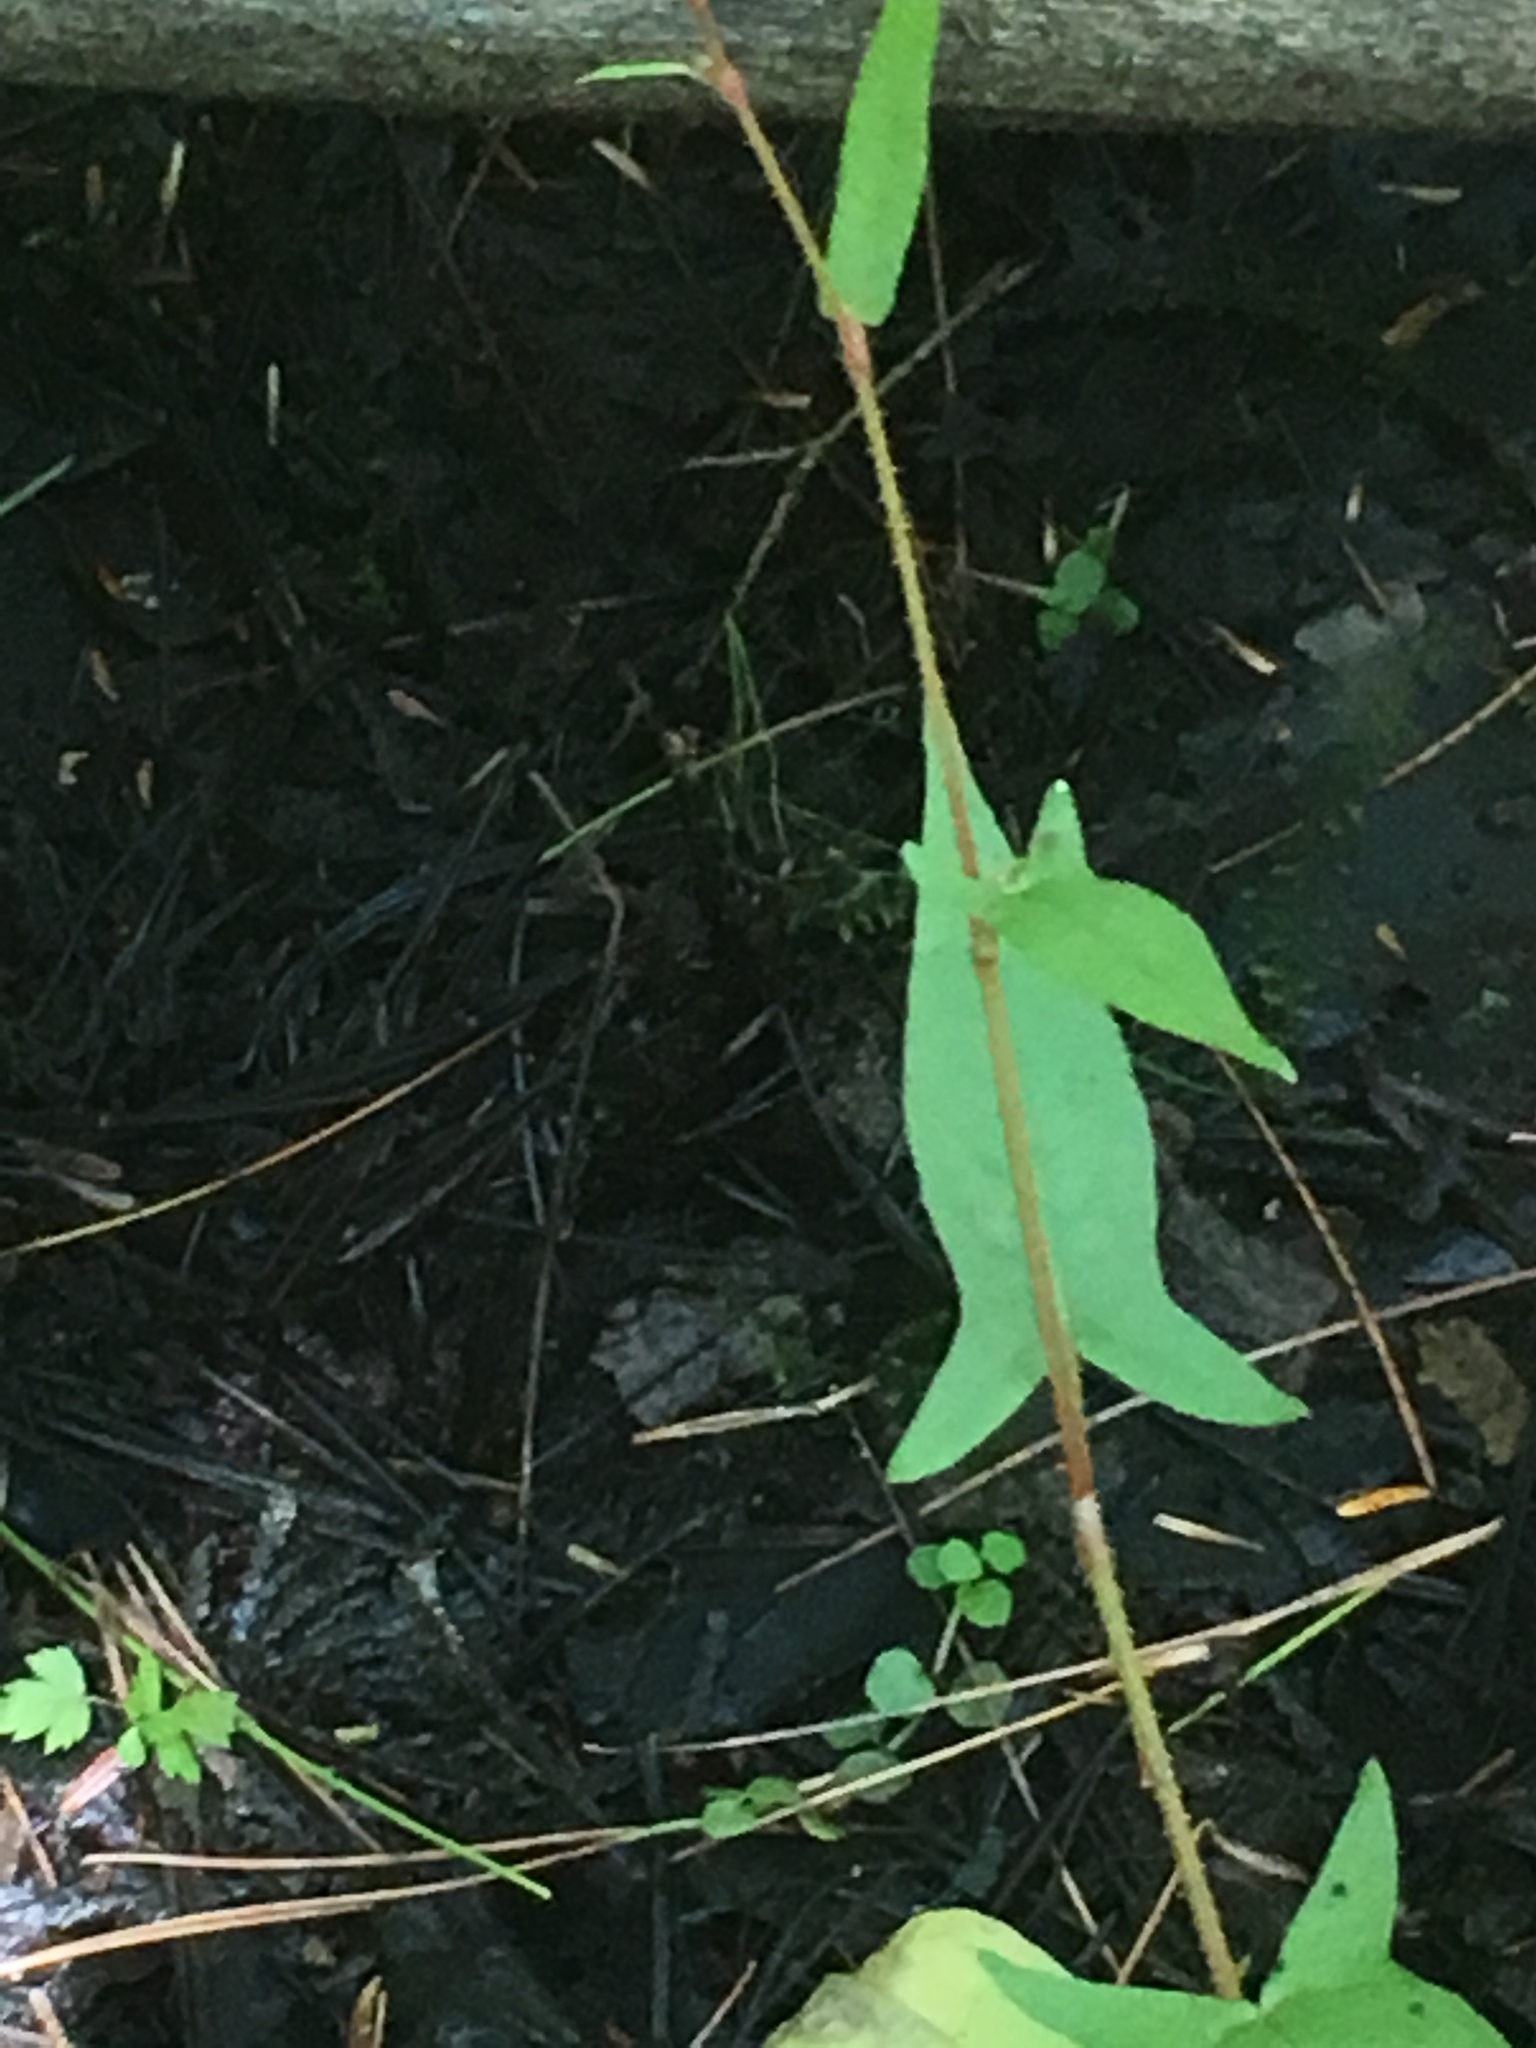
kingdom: Plantae
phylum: Tracheophyta
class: Magnoliopsida
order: Caryophyllales
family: Polygonaceae
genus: Persicaria
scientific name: Persicaria arifolia
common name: Halberd-leaved tear-thumb
